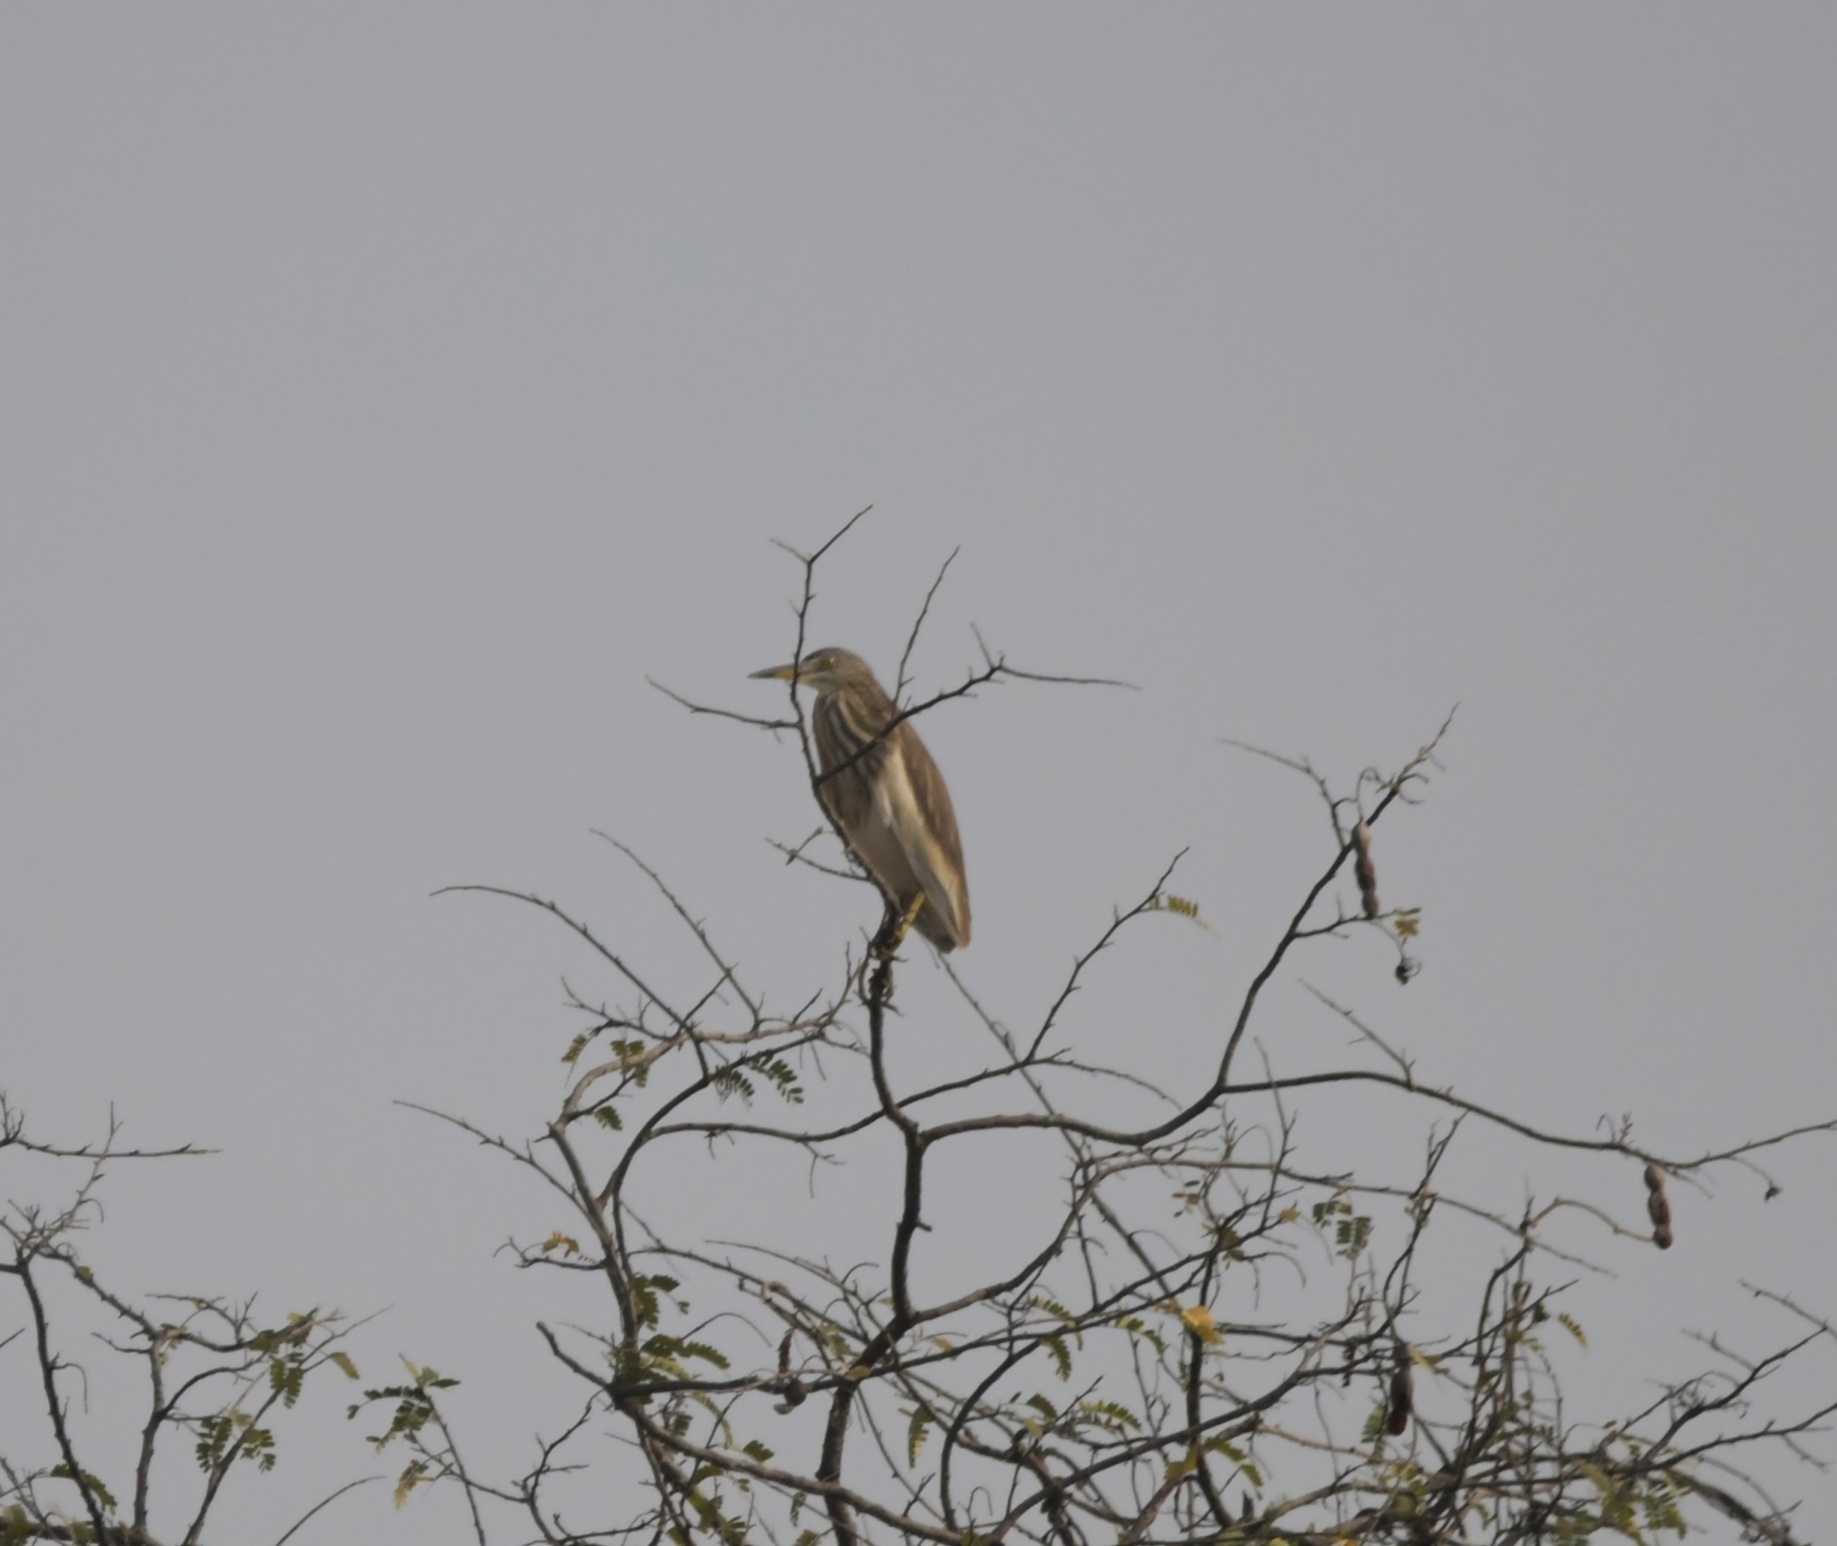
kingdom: Animalia
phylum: Chordata
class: Aves
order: Pelecaniformes
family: Ardeidae
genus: Ardeola
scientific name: Ardeola grayii
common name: Indian pond heron
